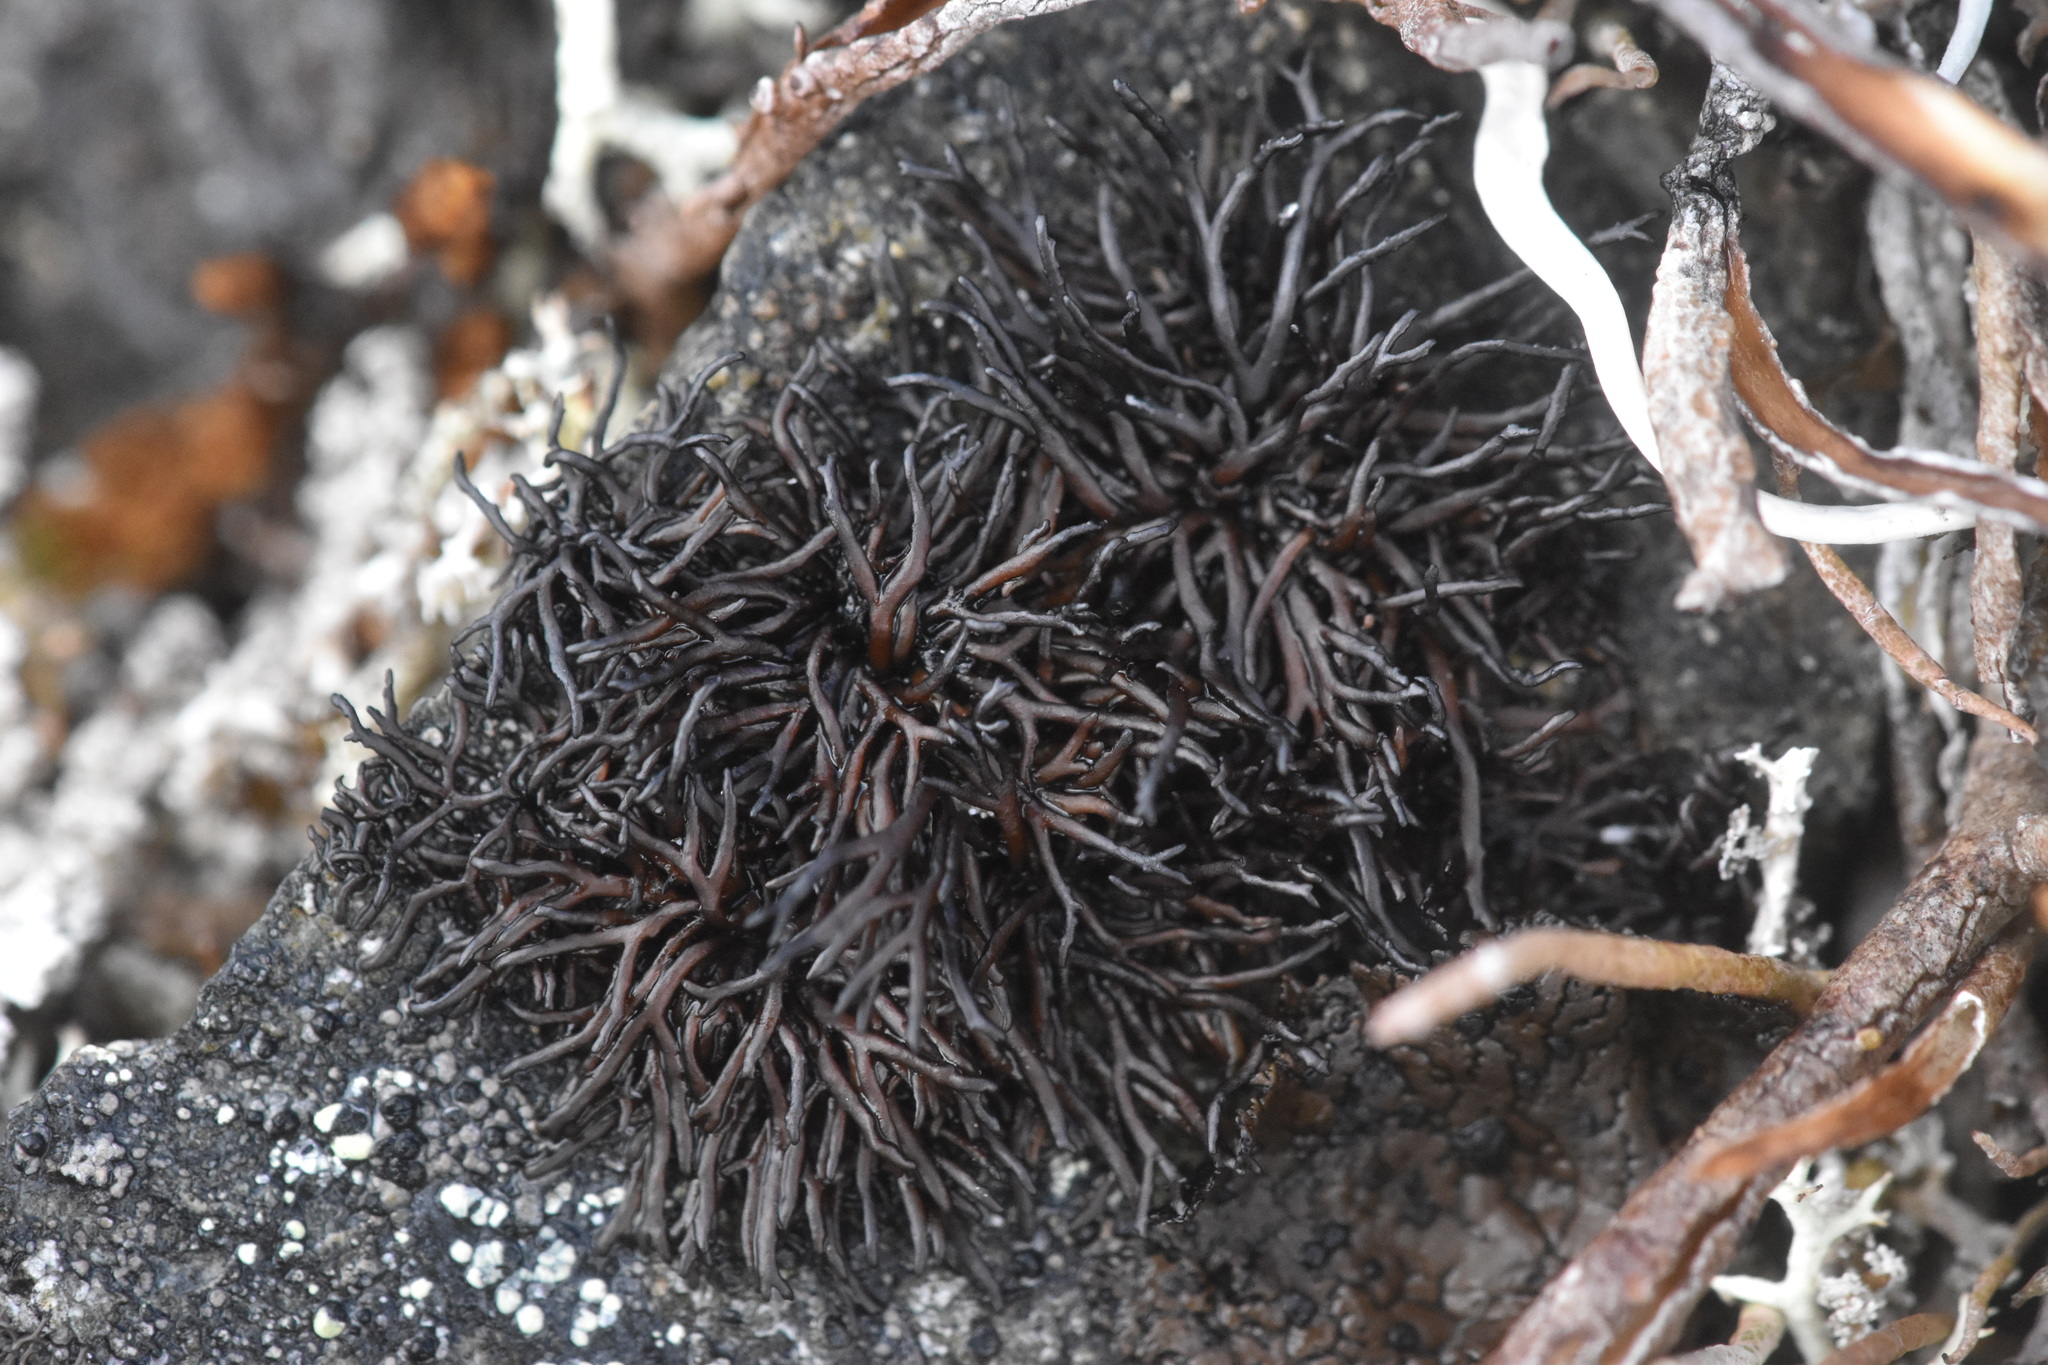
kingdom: Fungi
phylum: Ascomycota
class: Lecanoromycetes
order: Lecanorales
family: Parmeliaceae
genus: Cornicularia
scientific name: Cornicularia normoerica
